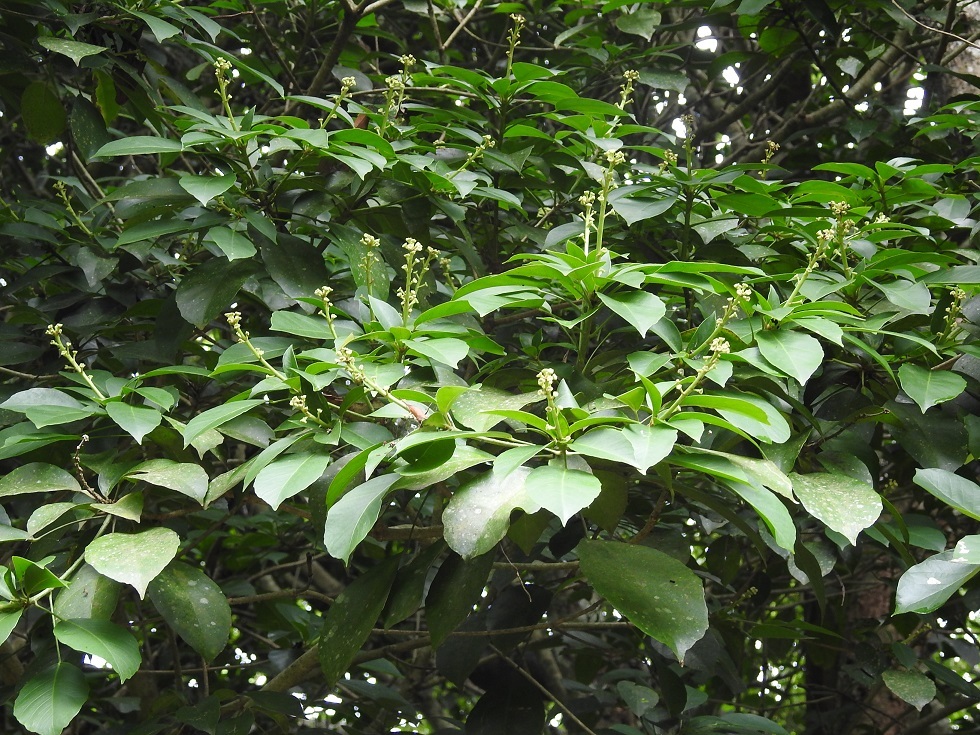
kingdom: Plantae
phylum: Tracheophyta
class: Magnoliopsida
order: Apiales
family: Araliaceae
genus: Dendropanax
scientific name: Dendropanax alaris
